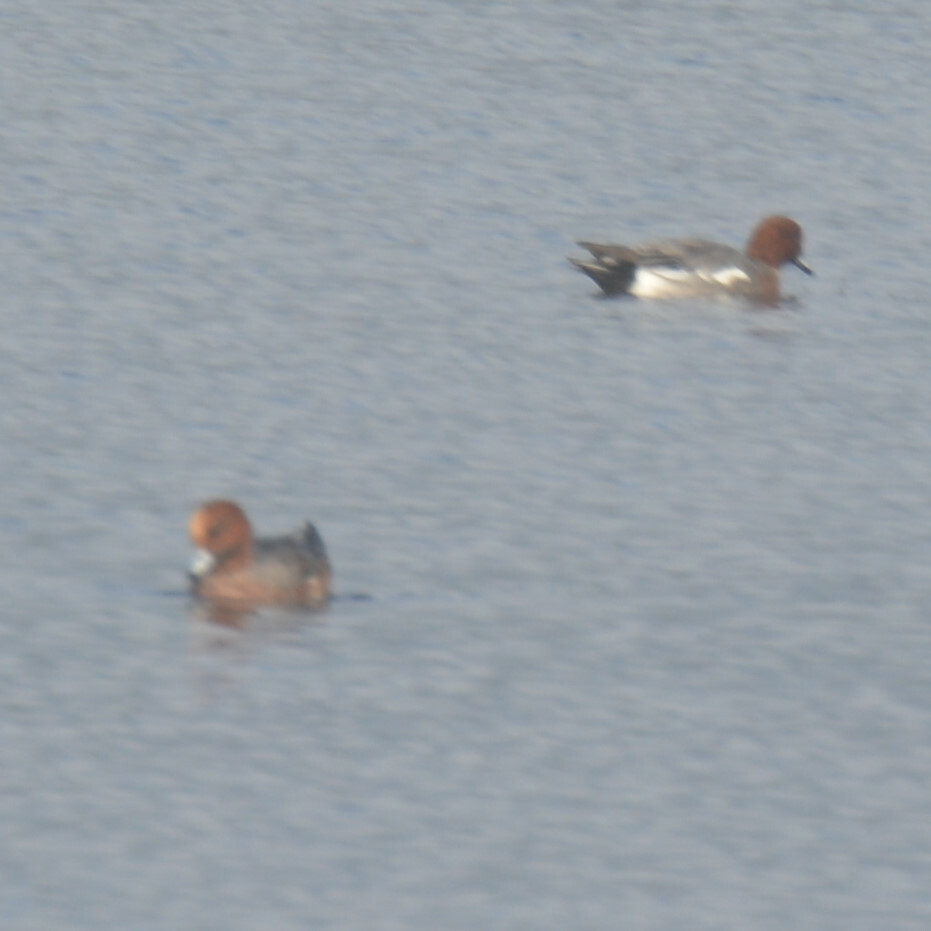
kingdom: Animalia
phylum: Chordata
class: Aves
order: Anseriformes
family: Anatidae
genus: Mareca
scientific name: Mareca penelope
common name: Eurasian wigeon
